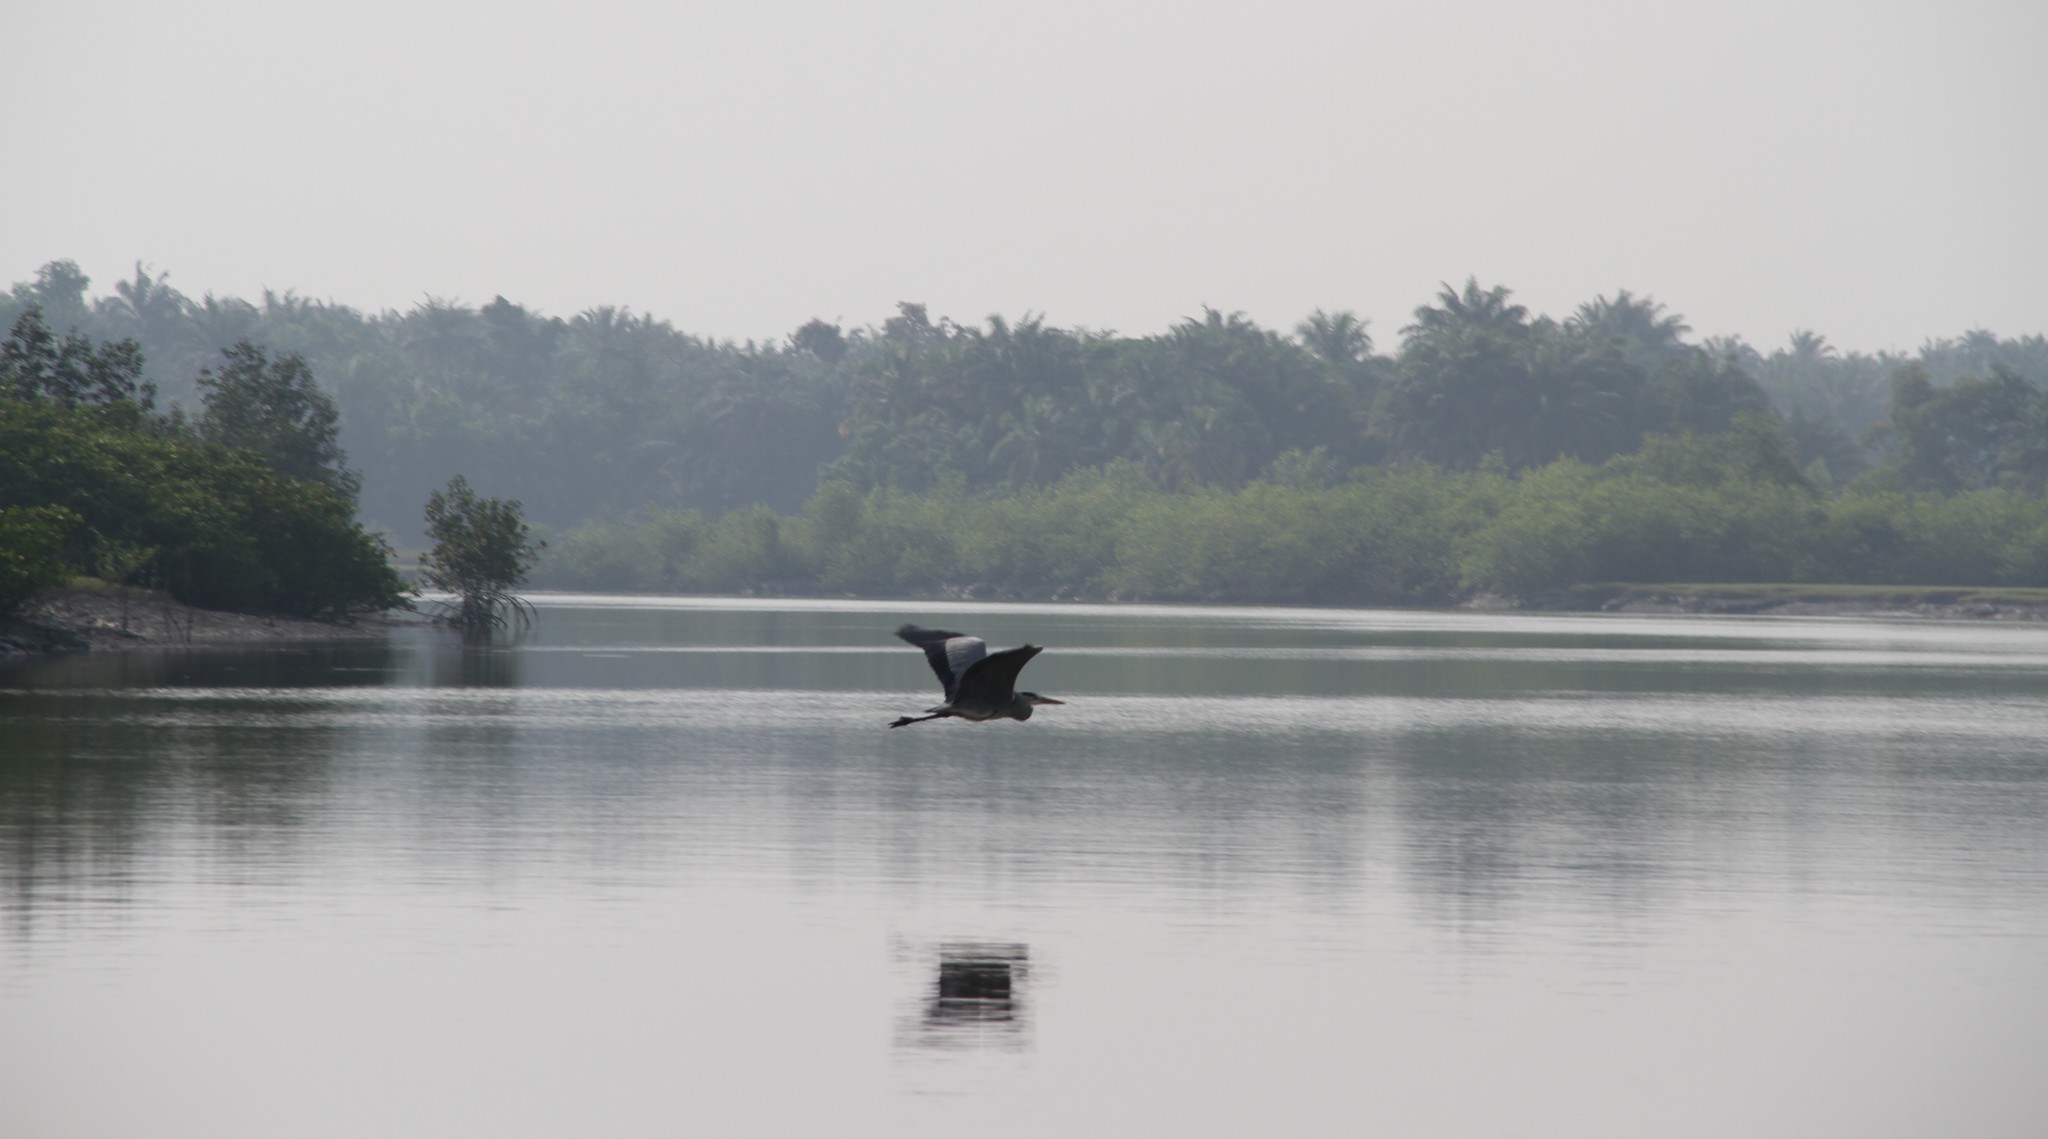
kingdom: Animalia
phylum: Chordata
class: Aves
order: Pelecaniformes
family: Ardeidae
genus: Ardea
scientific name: Ardea cinerea
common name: Grey heron
